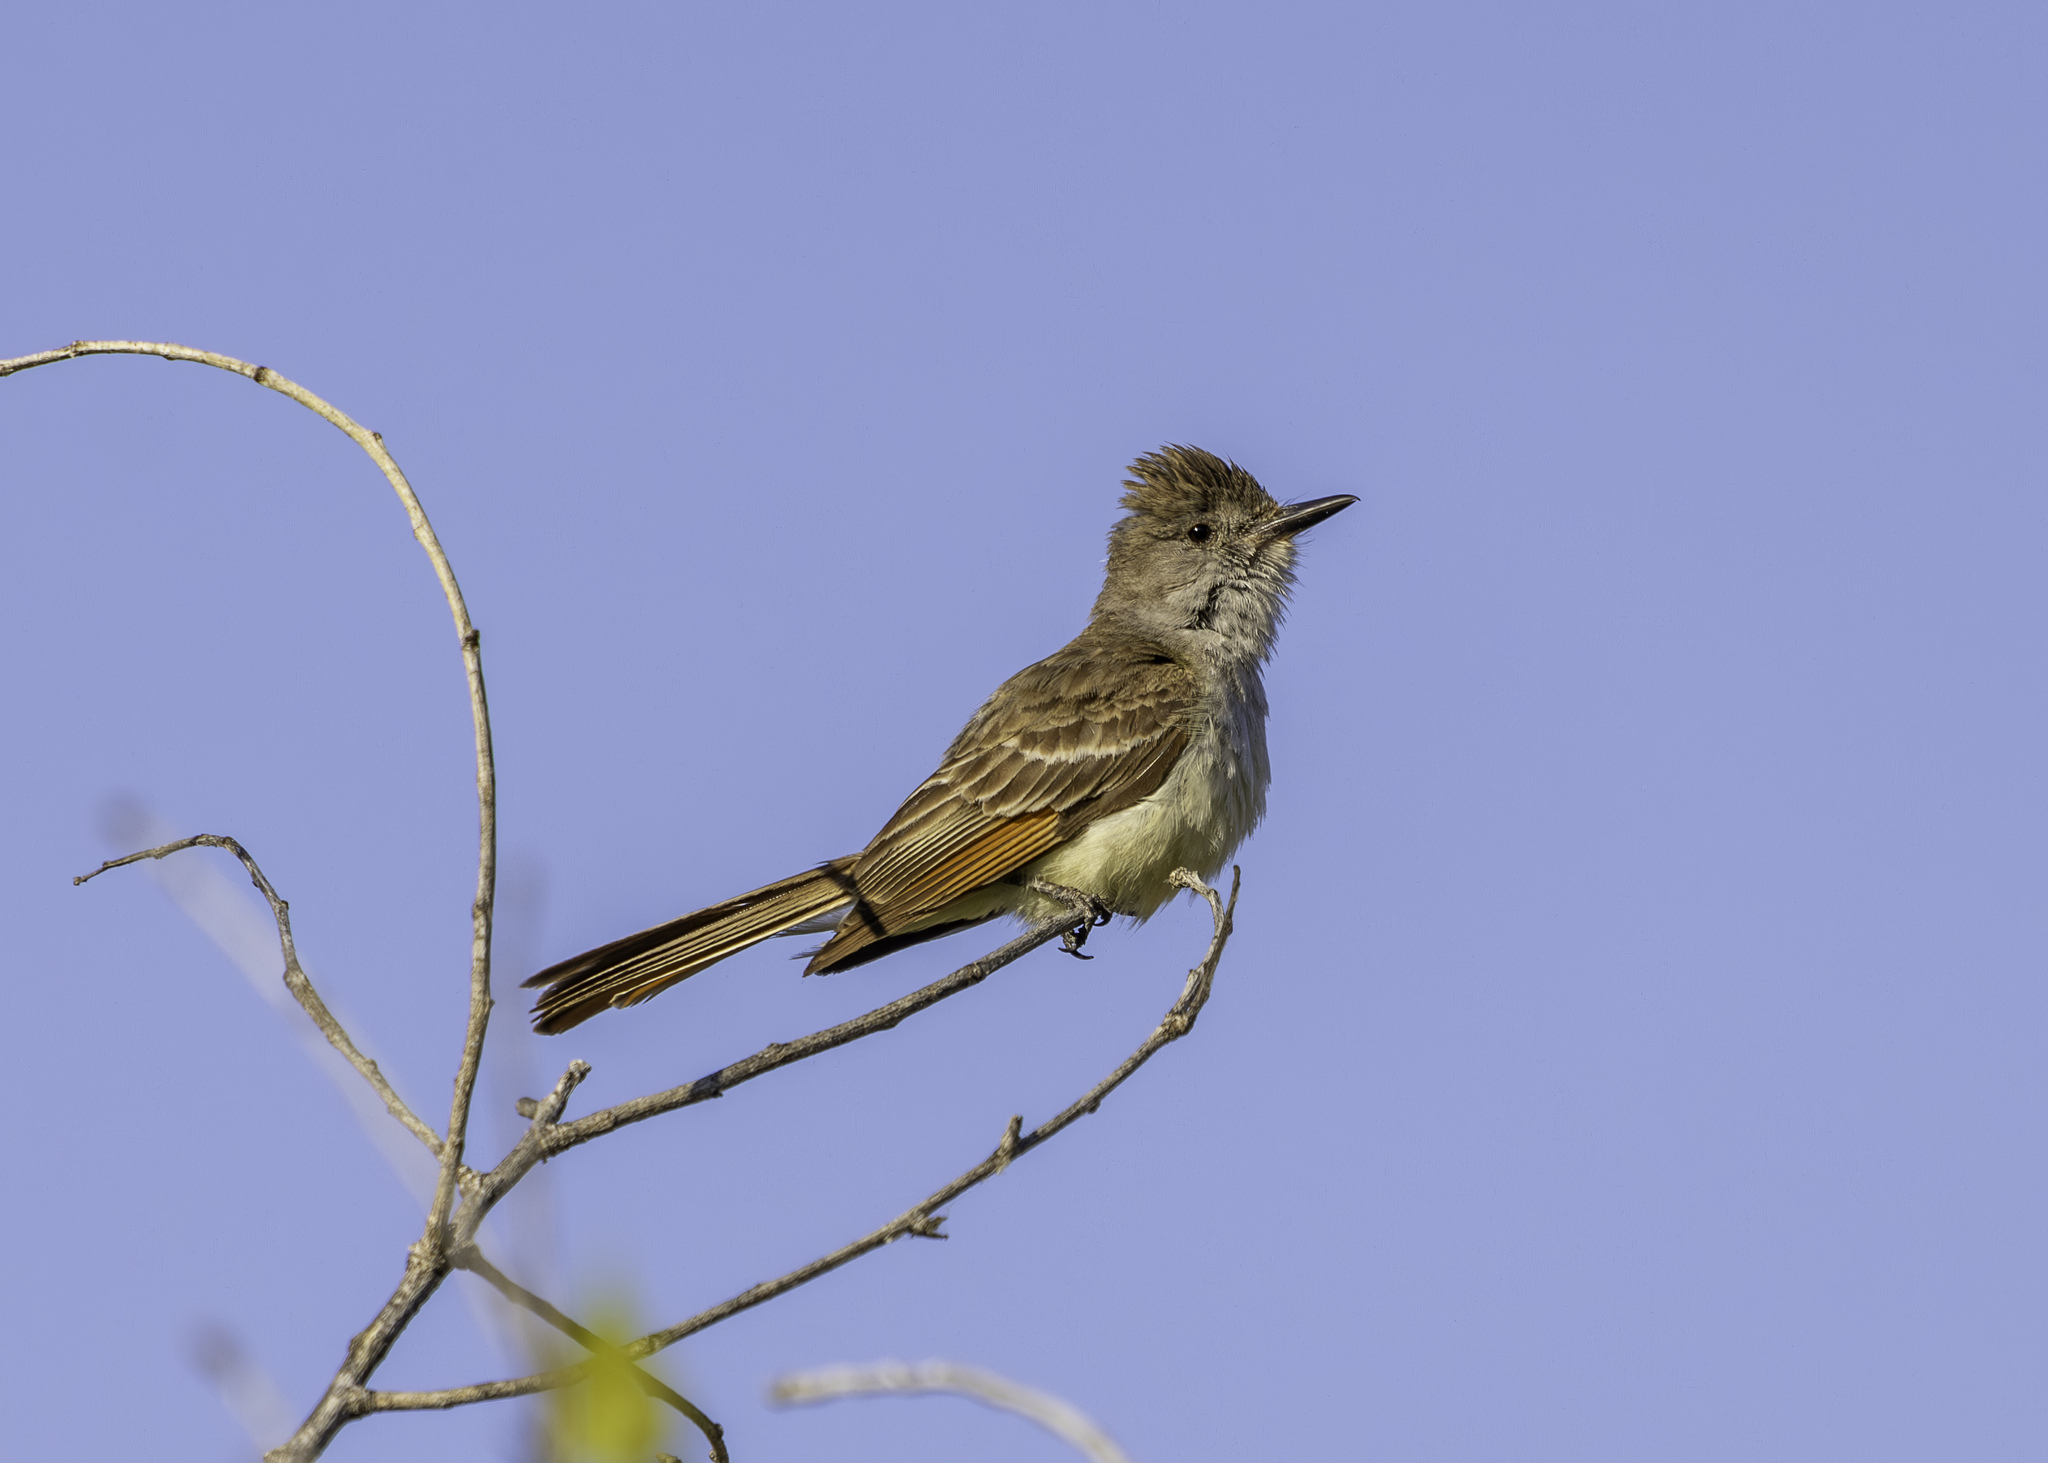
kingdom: Animalia
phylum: Chordata
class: Aves
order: Passeriformes
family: Tyrannidae
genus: Myiarchus
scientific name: Myiarchus cinerascens
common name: Ash-throated flycatcher
